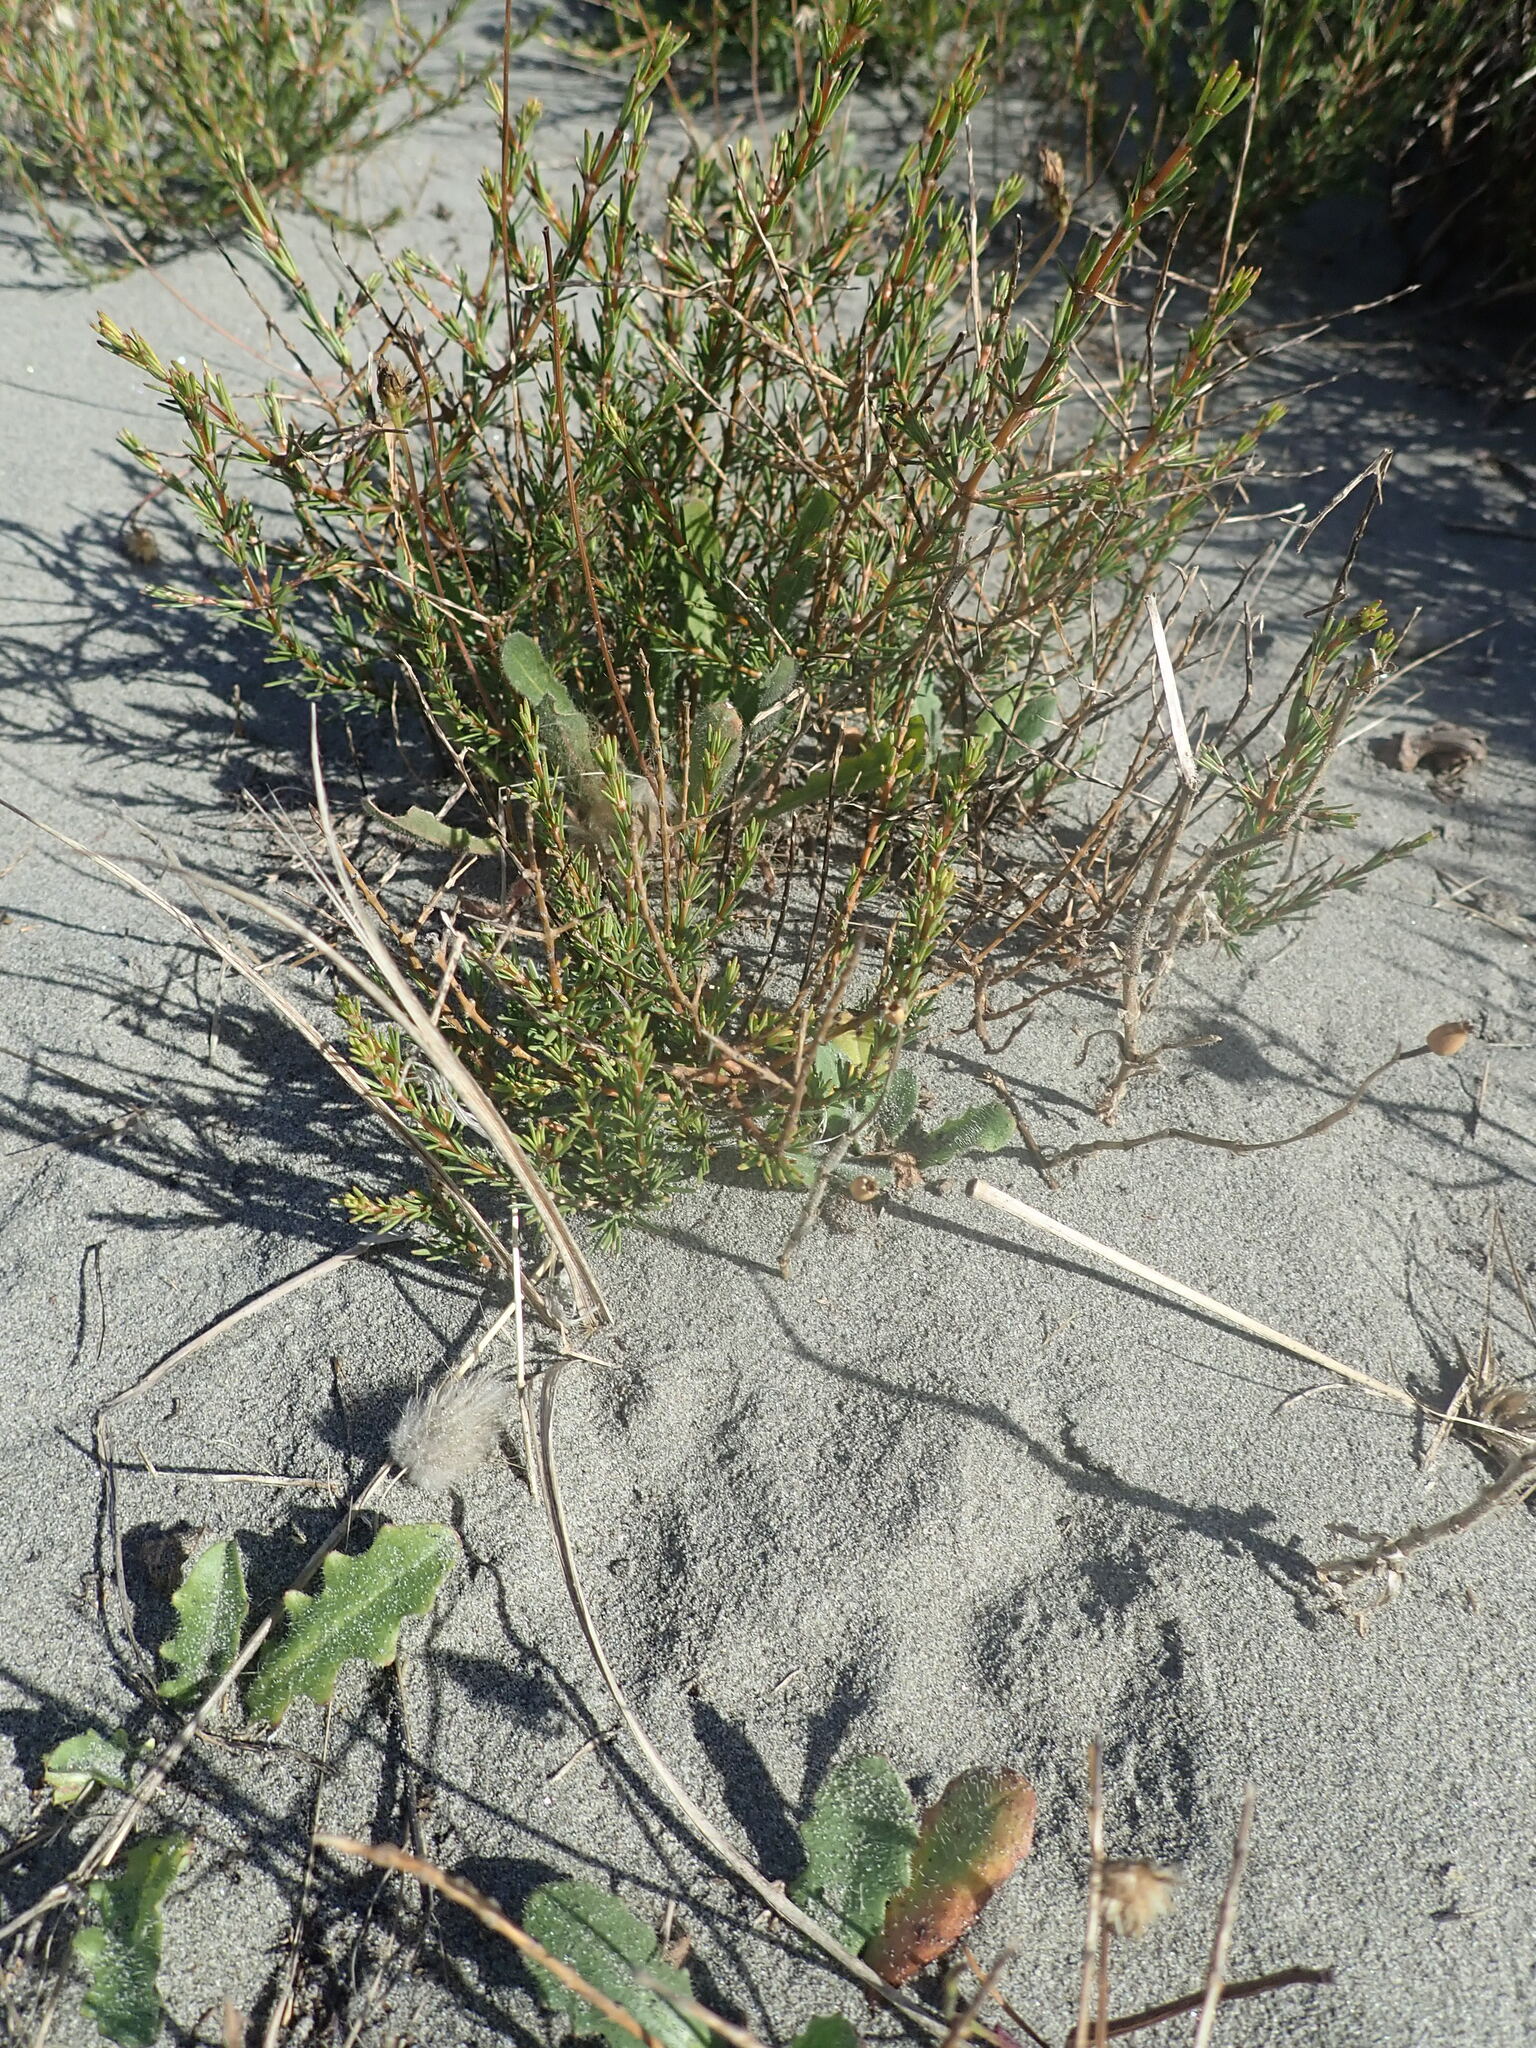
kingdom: Plantae
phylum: Tracheophyta
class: Magnoliopsida
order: Gentianales
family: Rubiaceae
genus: Coprosma
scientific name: Coprosma acerosa
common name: Sand coprosma
